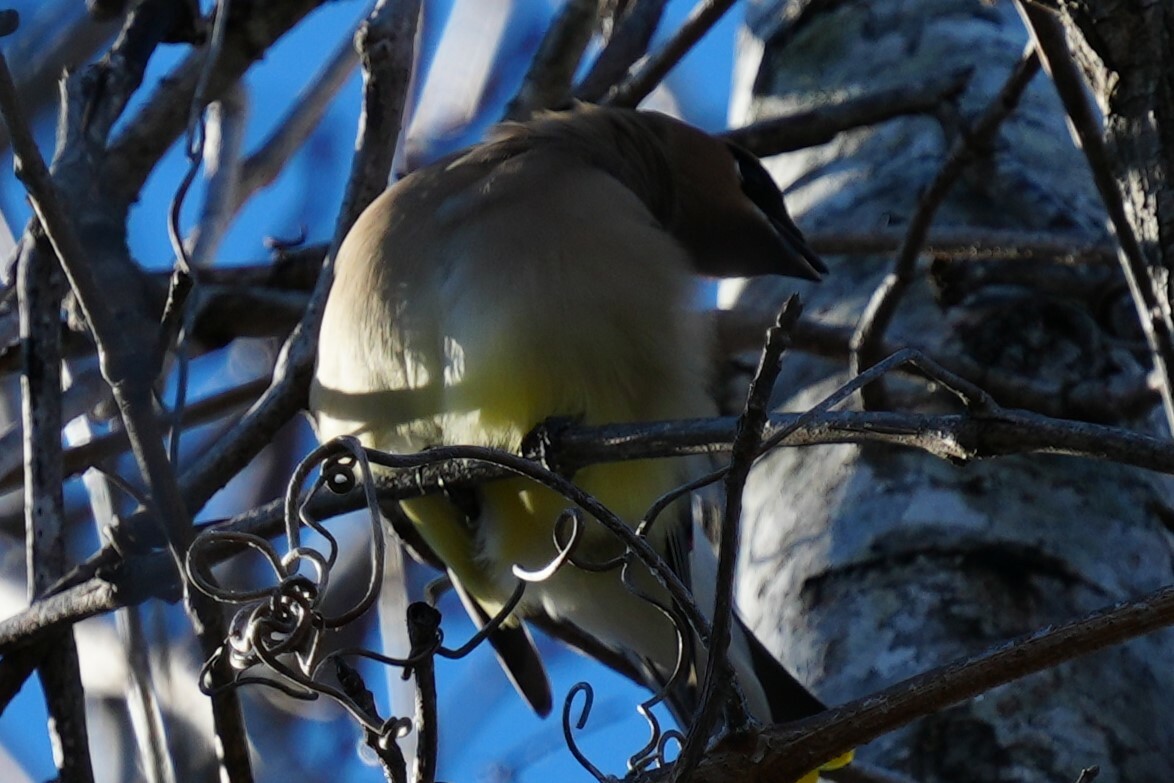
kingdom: Animalia
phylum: Chordata
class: Aves
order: Passeriformes
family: Bombycillidae
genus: Bombycilla
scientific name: Bombycilla cedrorum
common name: Cedar waxwing
